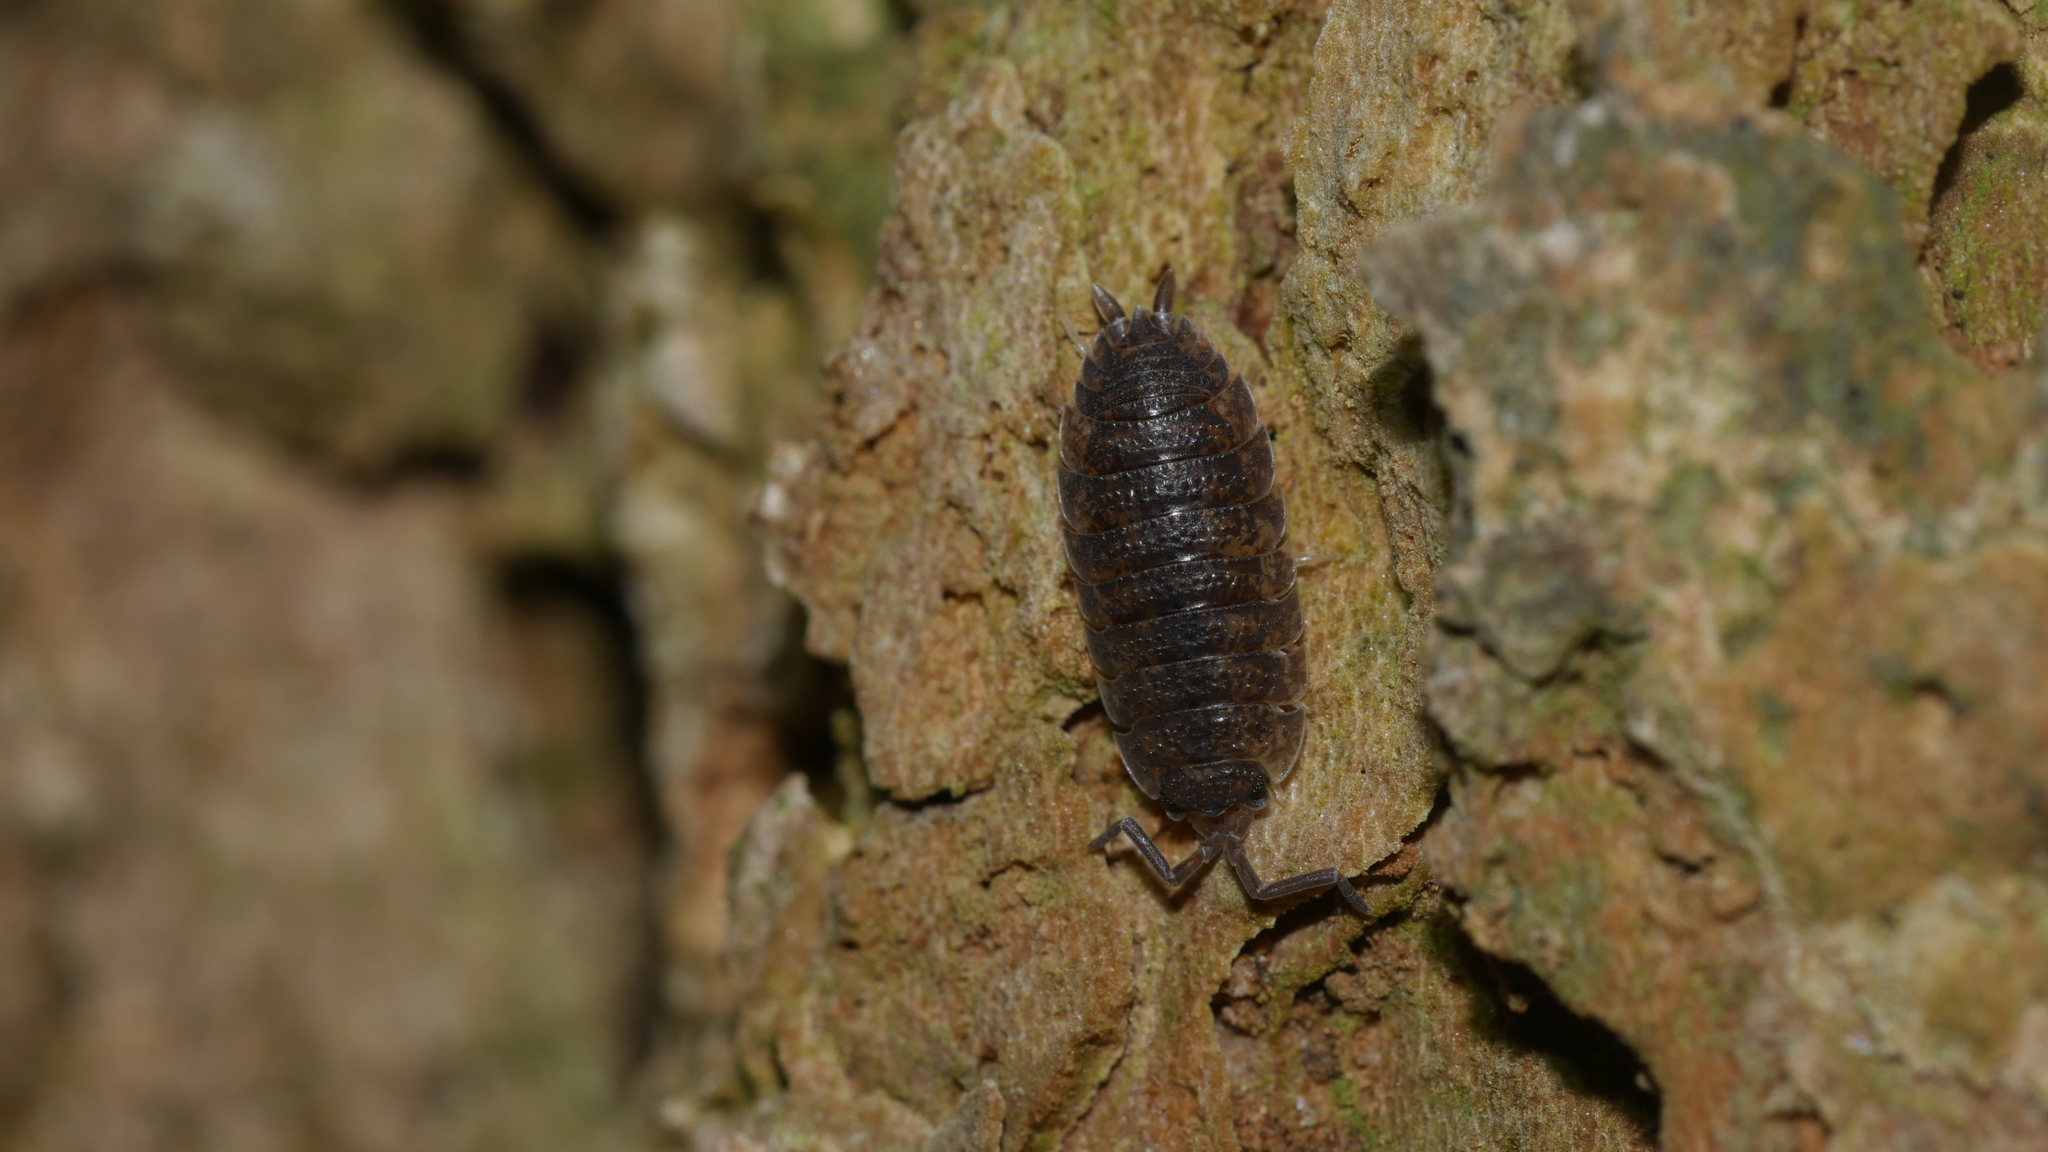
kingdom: Animalia
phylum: Arthropoda
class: Malacostraca
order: Isopoda
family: Porcellionidae
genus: Porcellio
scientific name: Porcellio scaber
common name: Common rough woodlouse
